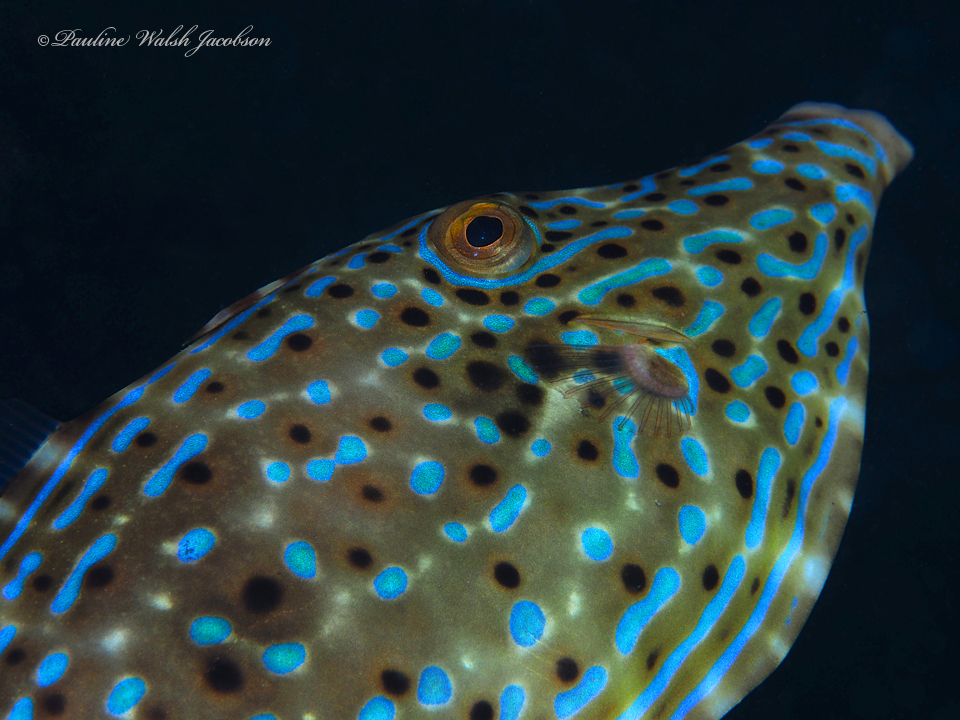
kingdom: Animalia
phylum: Chordata
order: Tetraodontiformes
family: Monacanthidae
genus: Aluterus
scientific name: Aluterus scriptus
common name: Scribbled leatherjacket filefish
